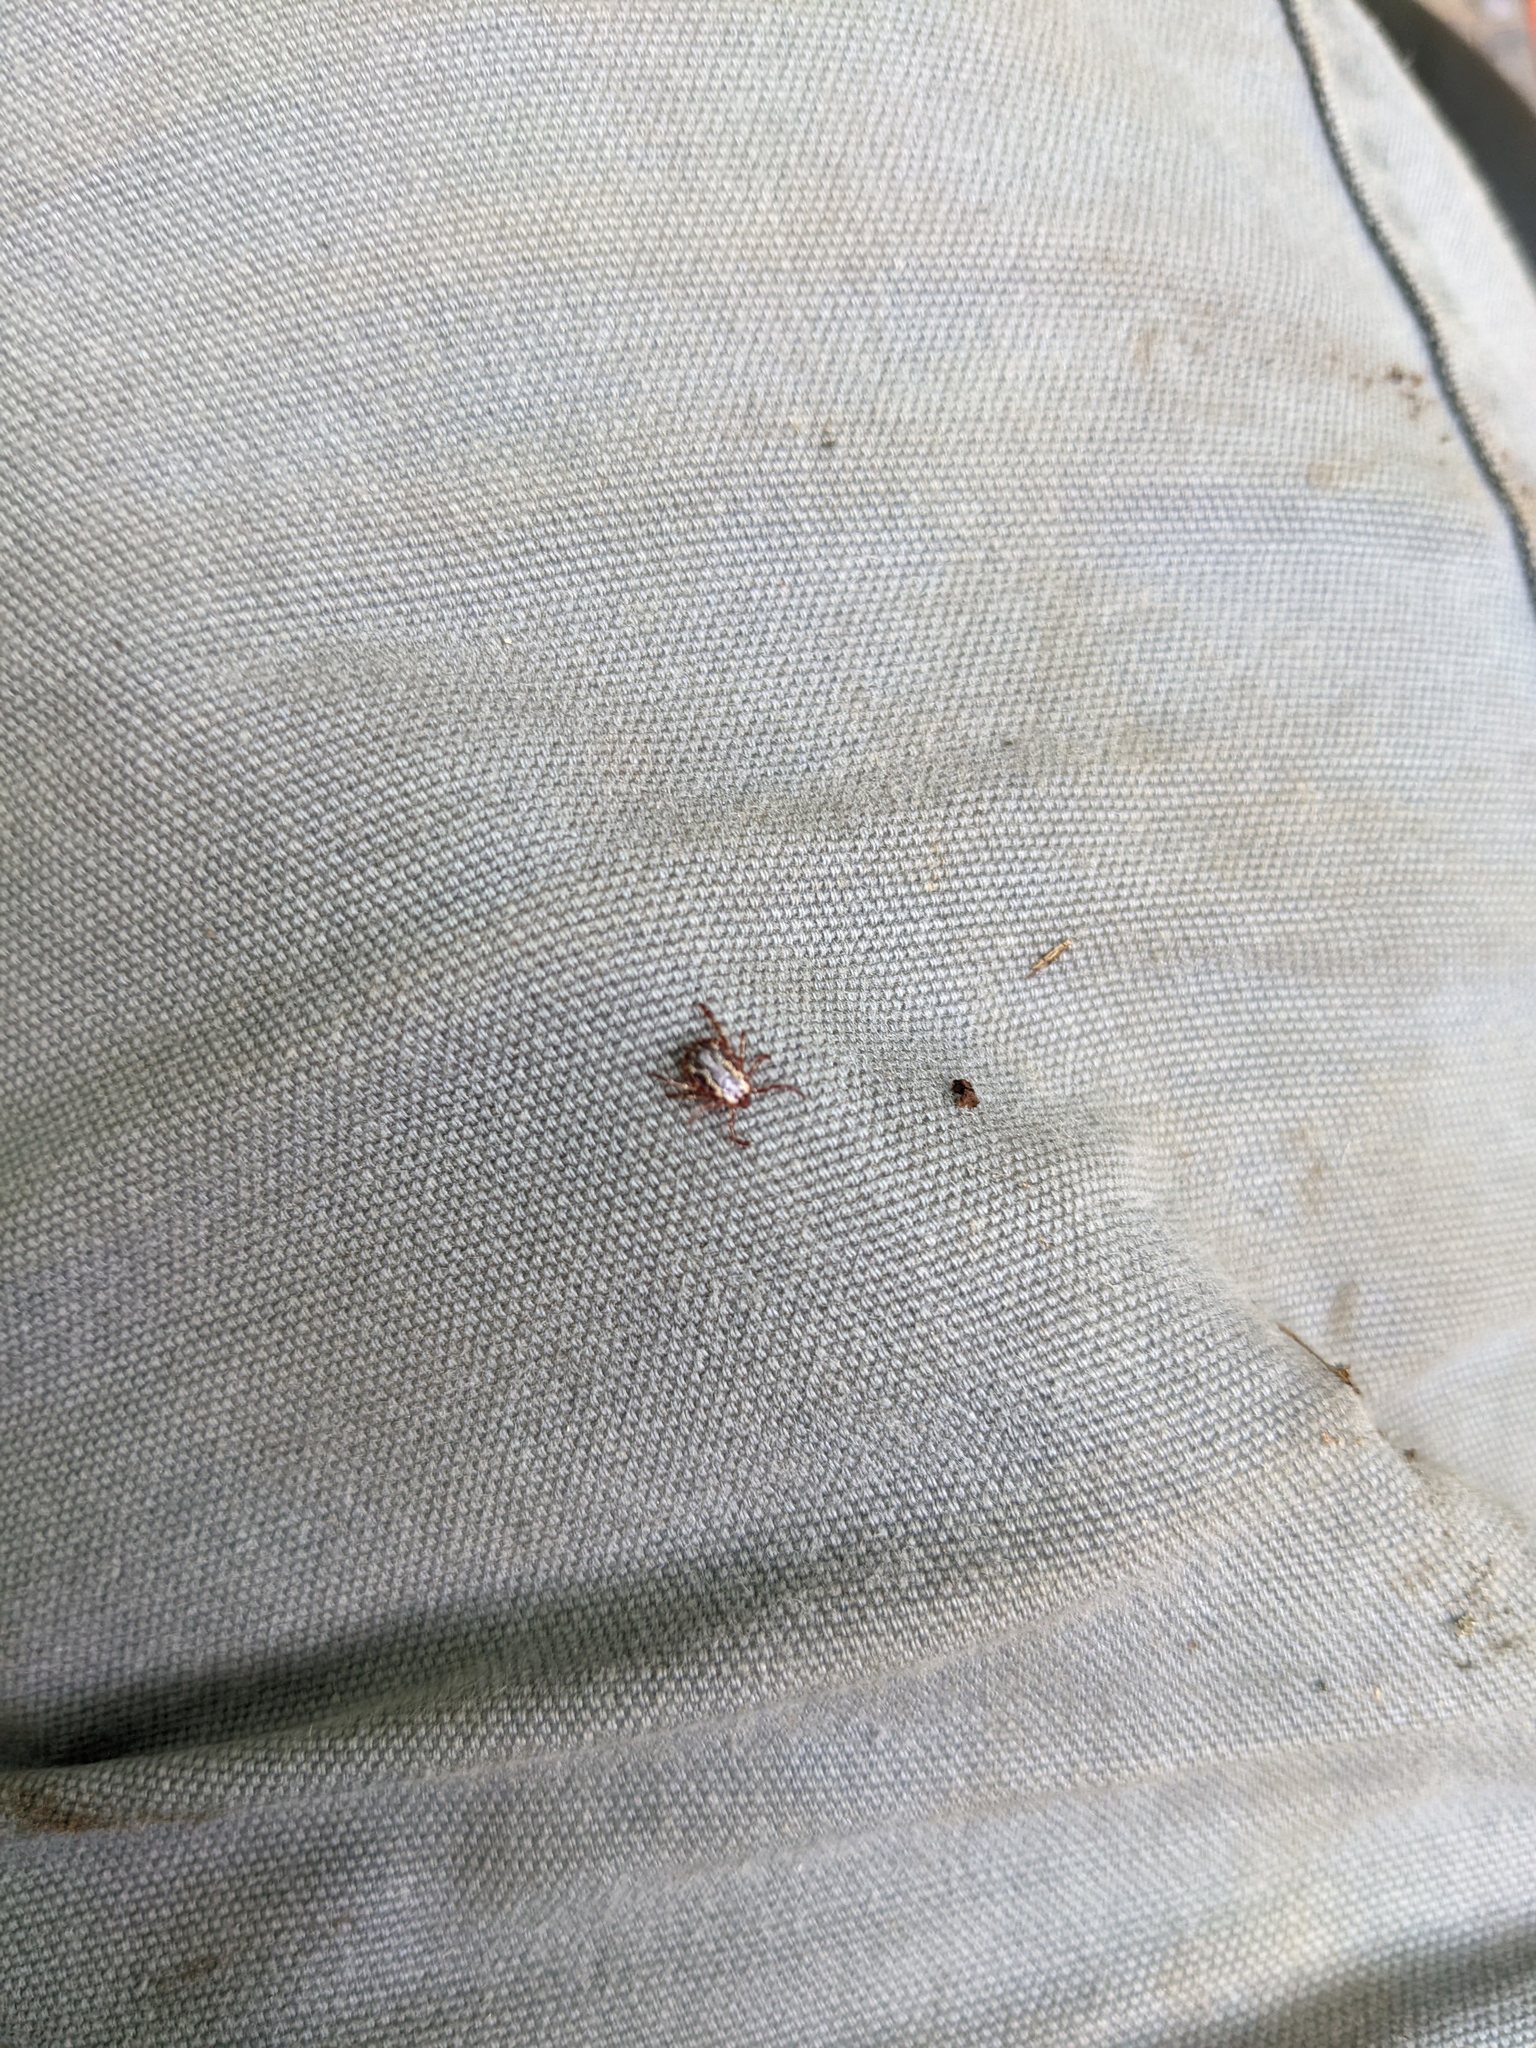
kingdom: Animalia
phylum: Arthropoda
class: Arachnida
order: Ixodida
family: Ixodidae
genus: Dermacentor
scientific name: Dermacentor variabilis
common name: American dog tick
